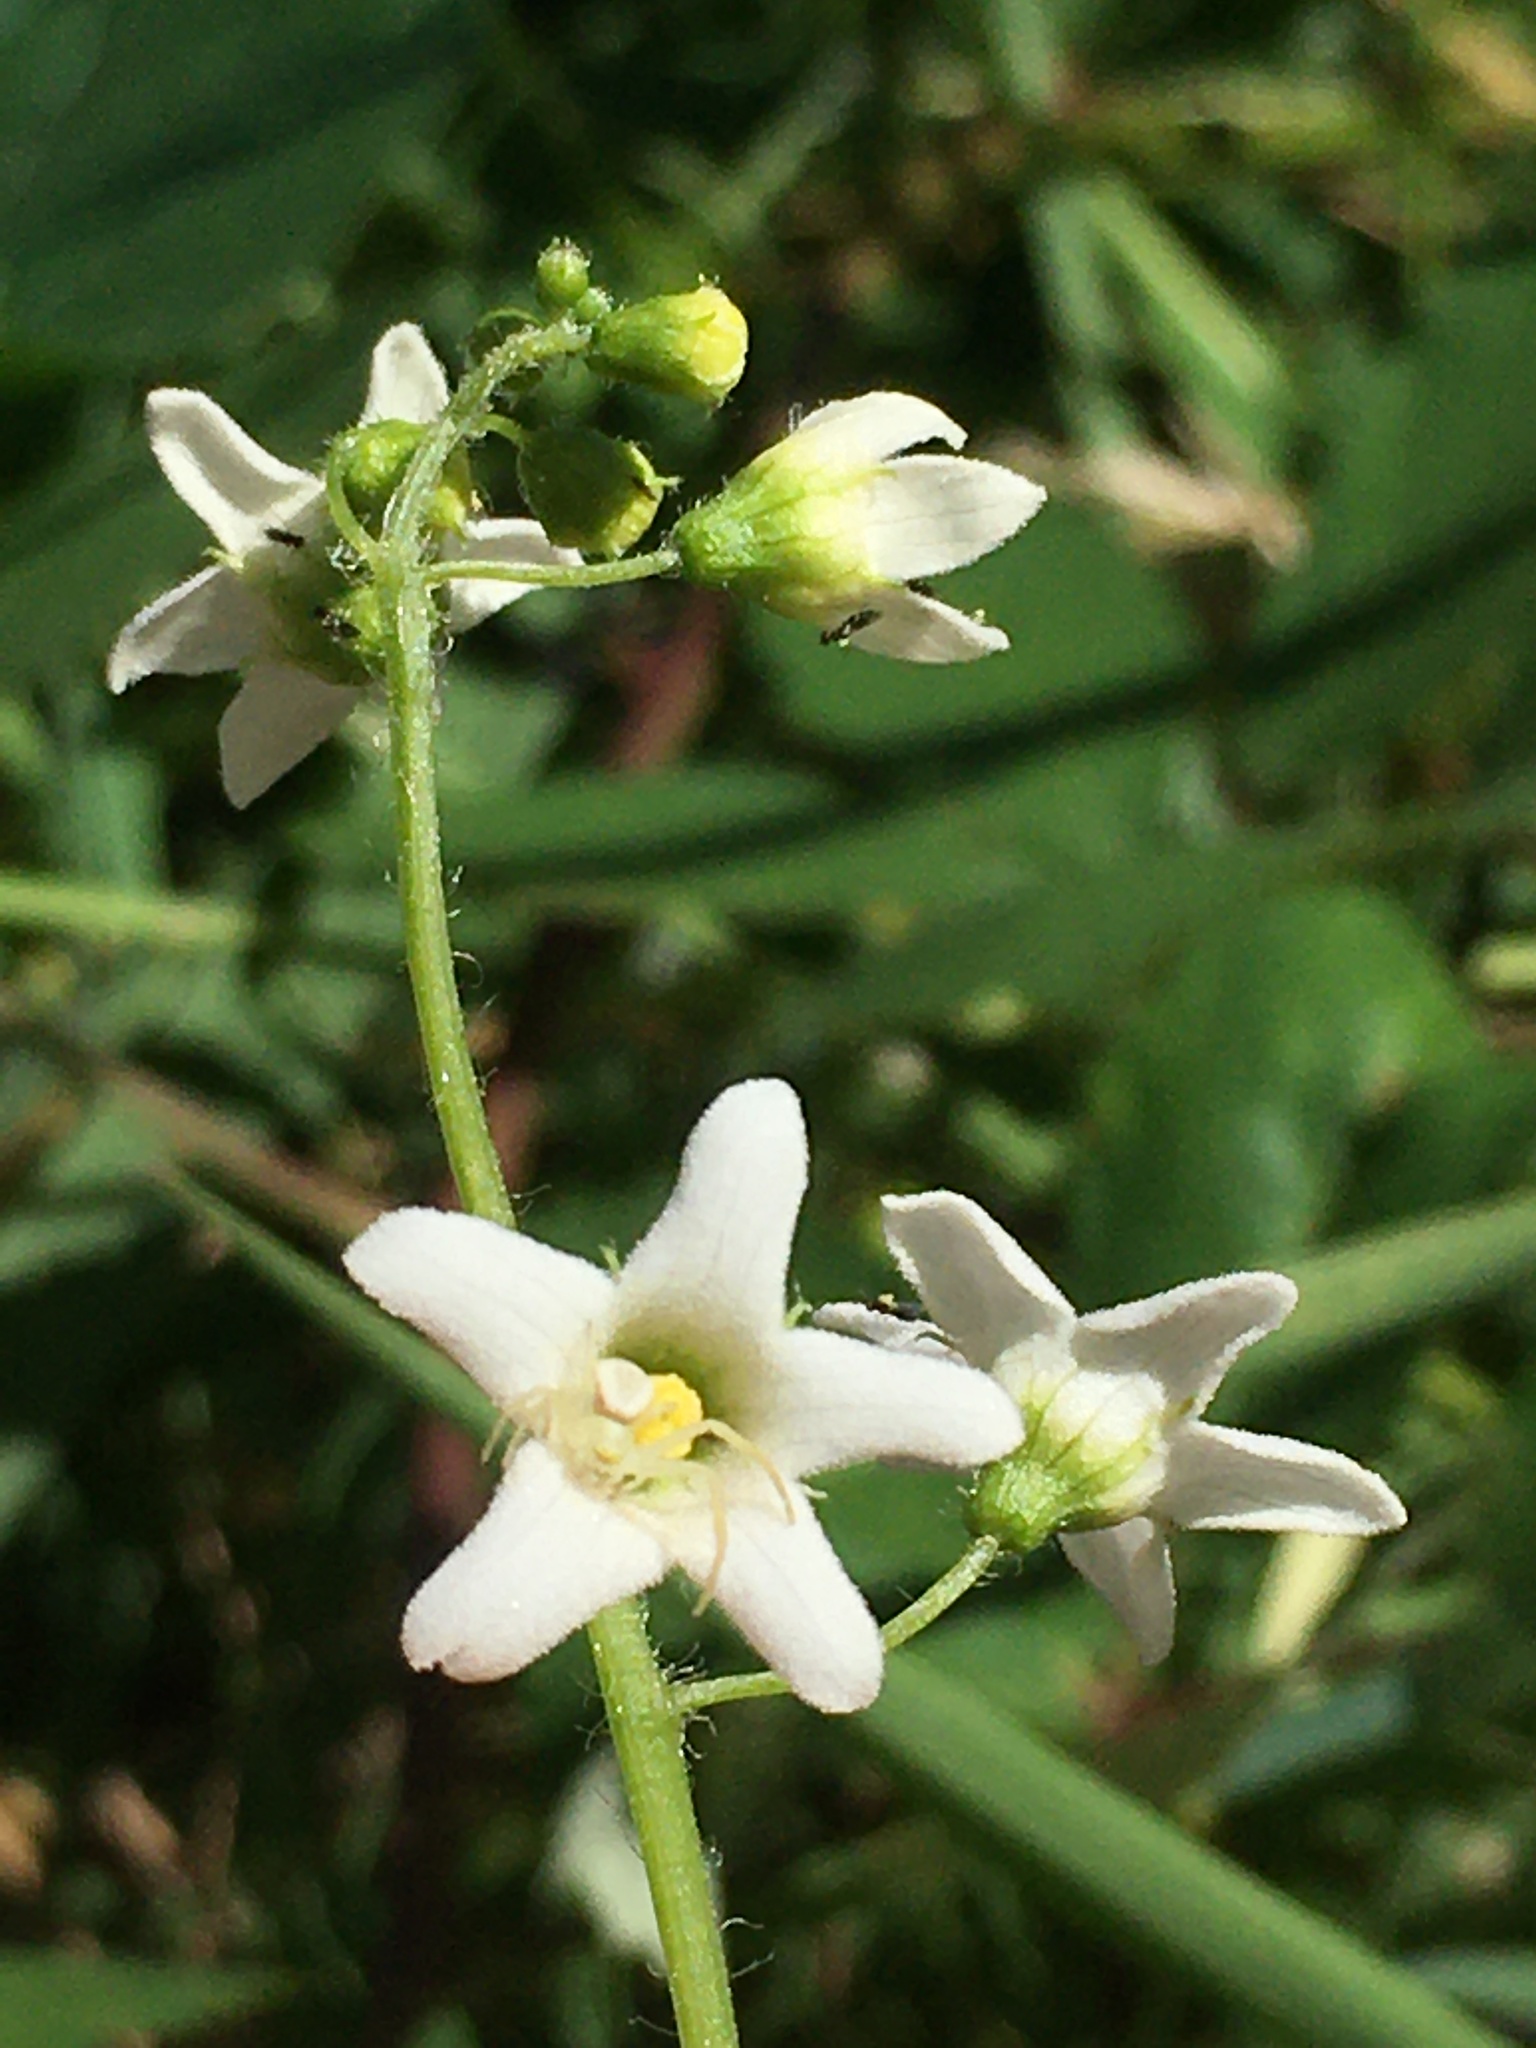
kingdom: Plantae
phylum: Tracheophyta
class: Magnoliopsida
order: Cucurbitales
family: Cucurbitaceae
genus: Marah
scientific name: Marah oregana
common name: Coastal manroot
